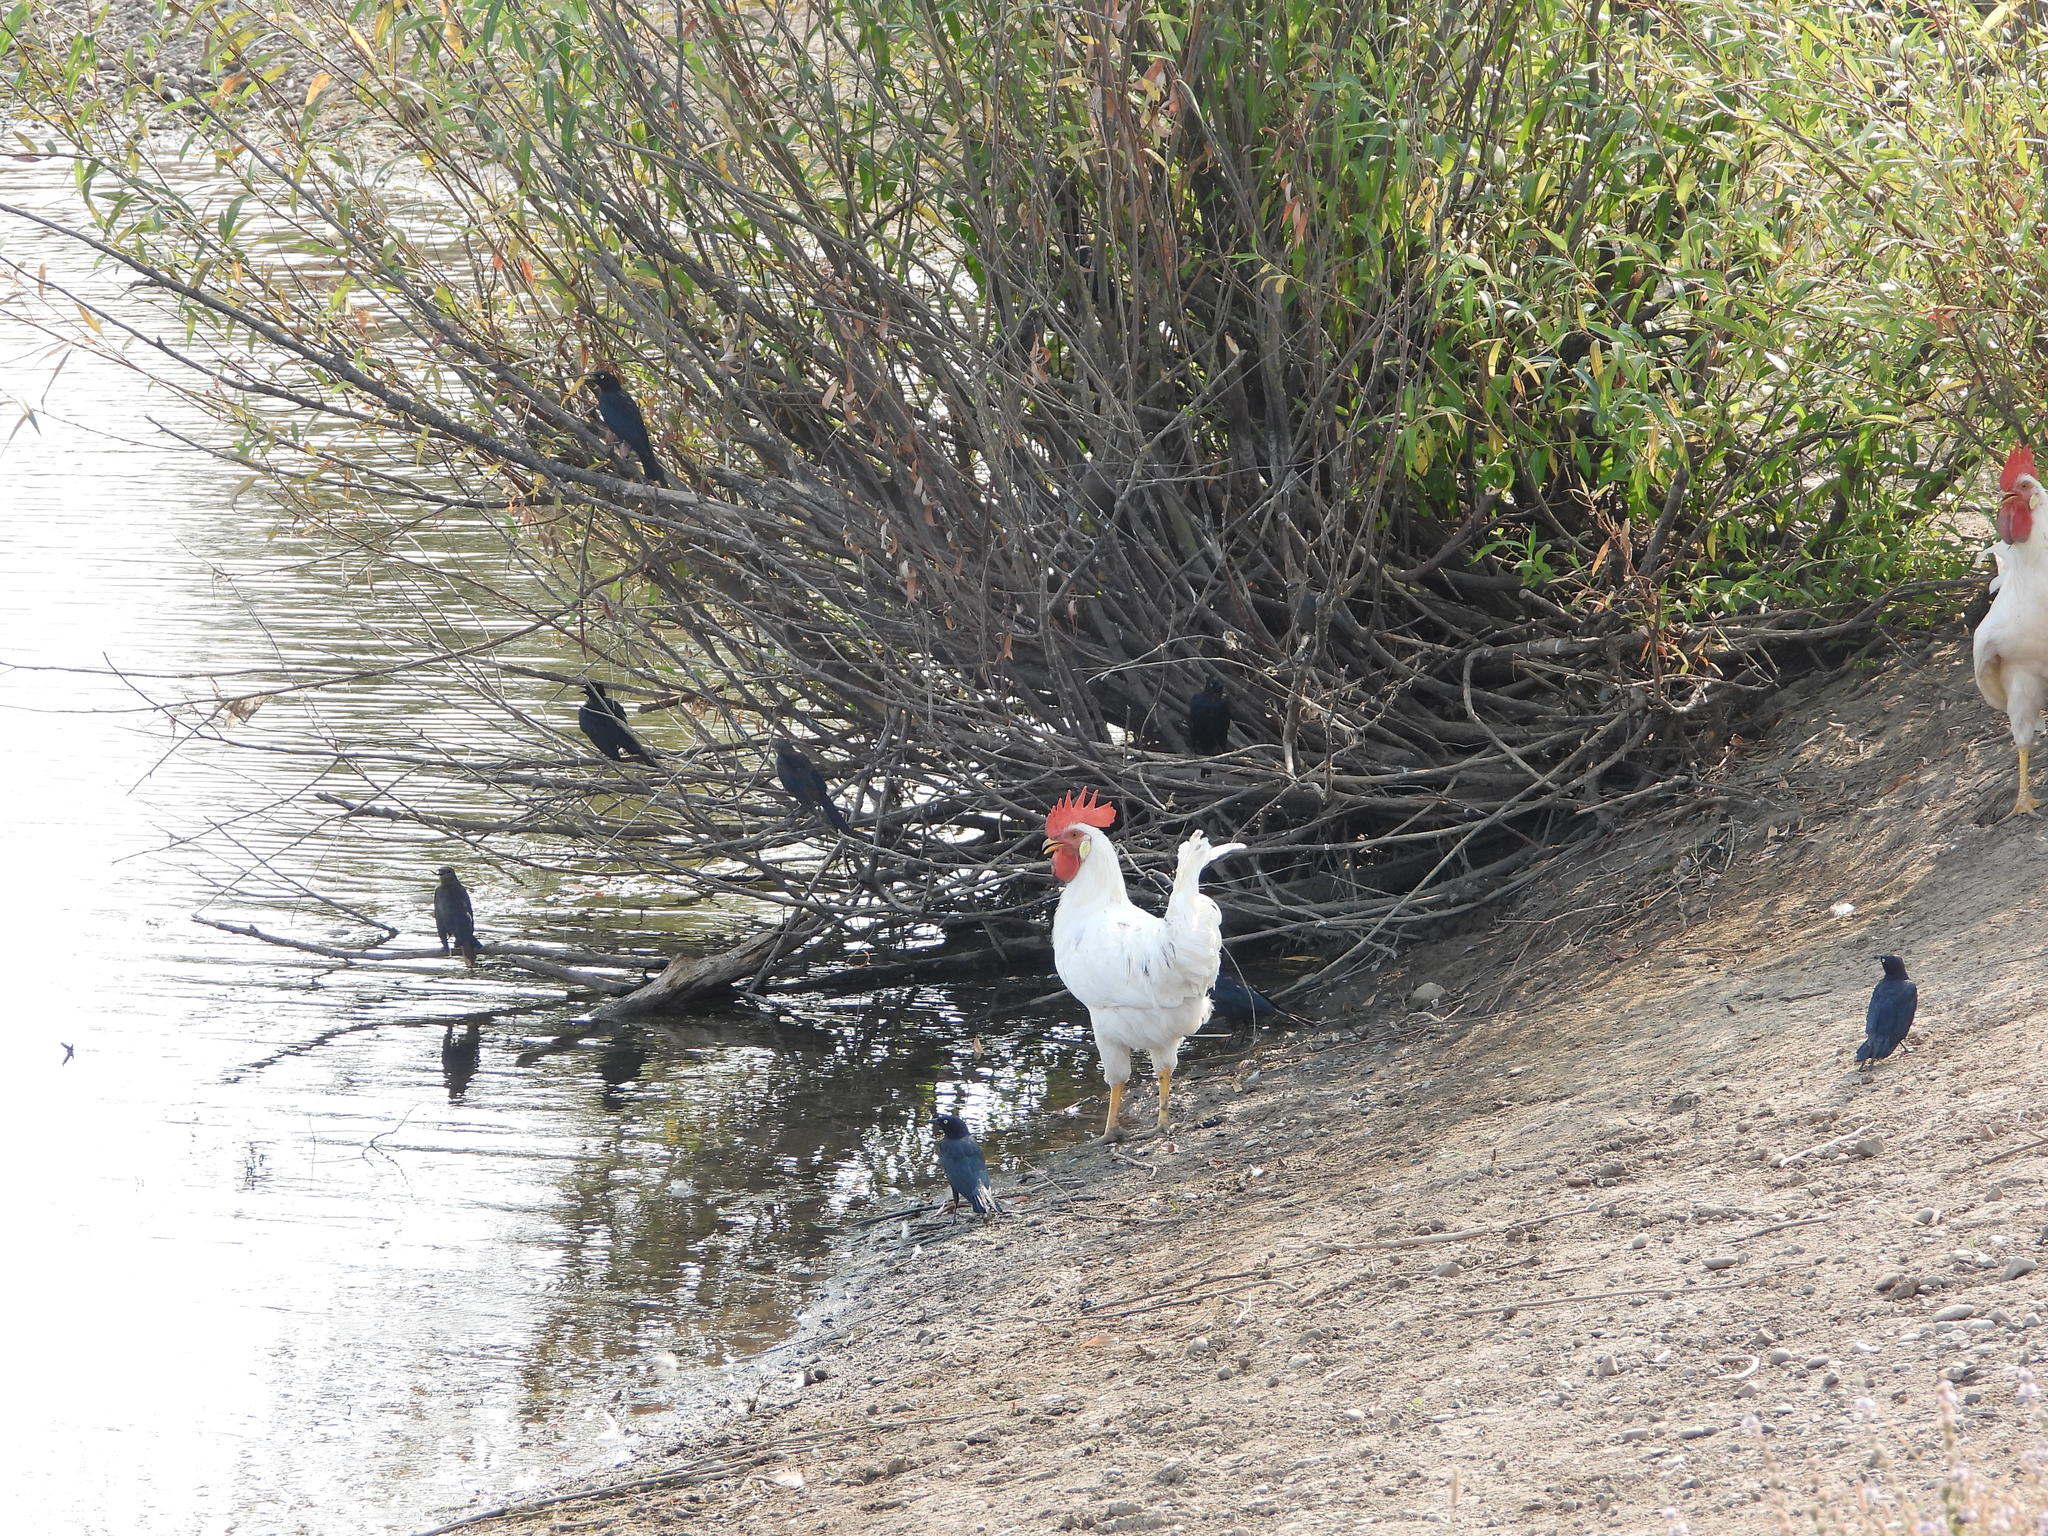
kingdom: Animalia
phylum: Chordata
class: Aves
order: Passeriformes
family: Icteridae
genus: Euphagus
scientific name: Euphagus cyanocephalus
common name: Brewer's blackbird
